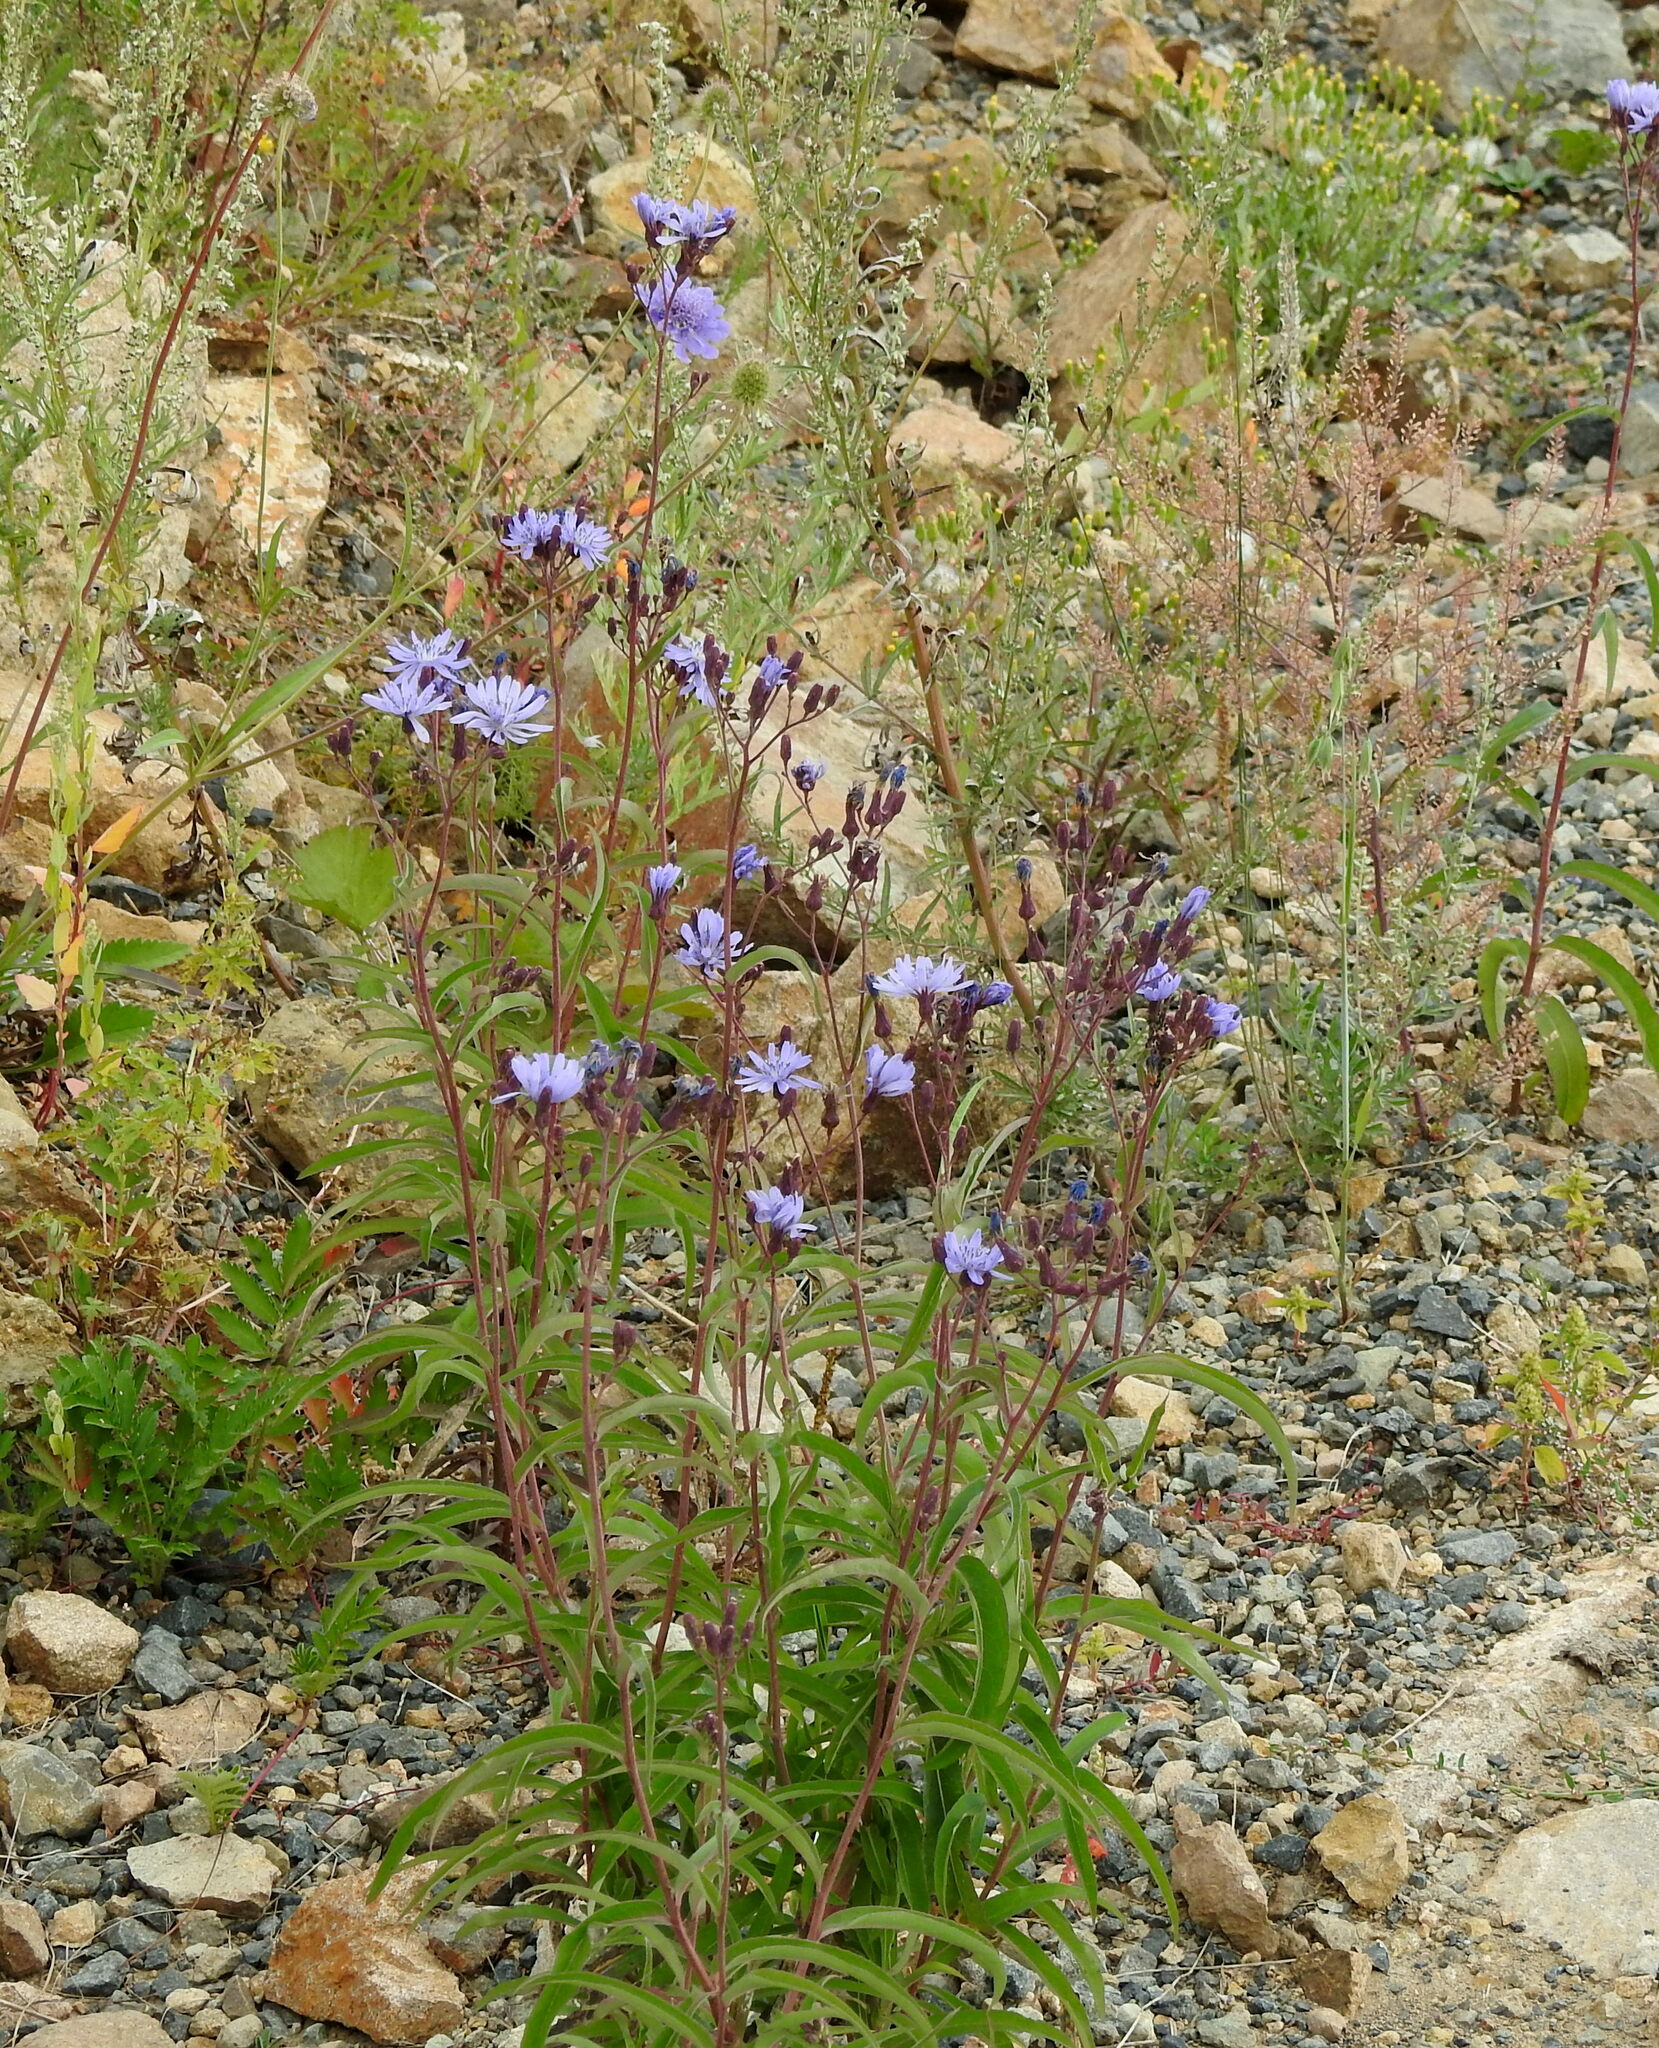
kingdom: Plantae
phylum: Tracheophyta
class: Magnoliopsida
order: Asterales
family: Asteraceae
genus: Lactuca
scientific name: Lactuca sibirica
